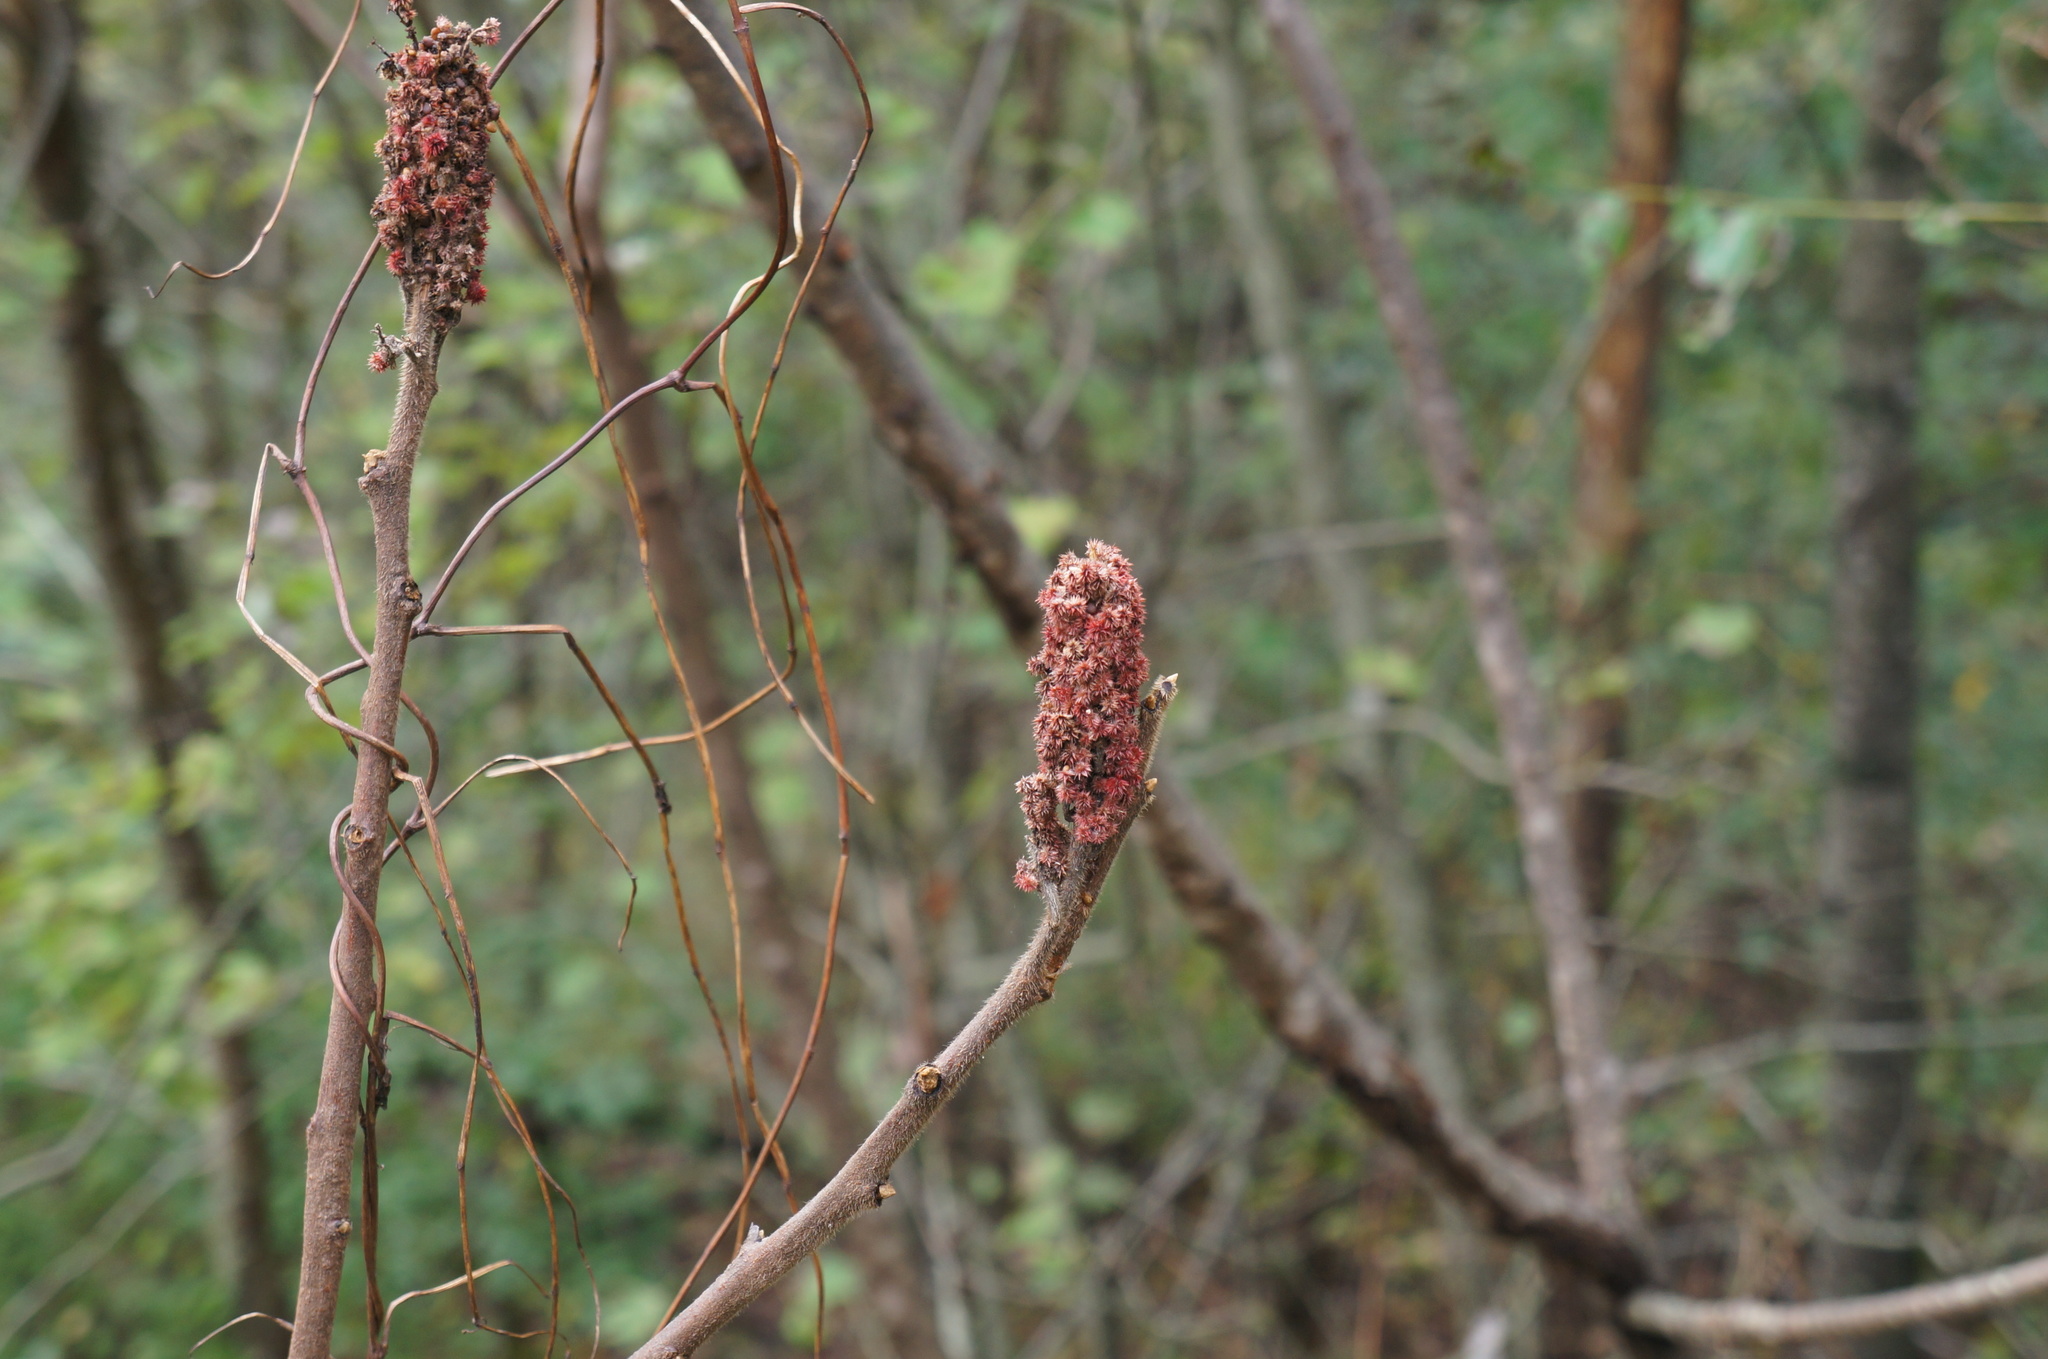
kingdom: Plantae
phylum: Tracheophyta
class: Magnoliopsida
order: Sapindales
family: Anacardiaceae
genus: Rhus
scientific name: Rhus typhina
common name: Staghorn sumac
